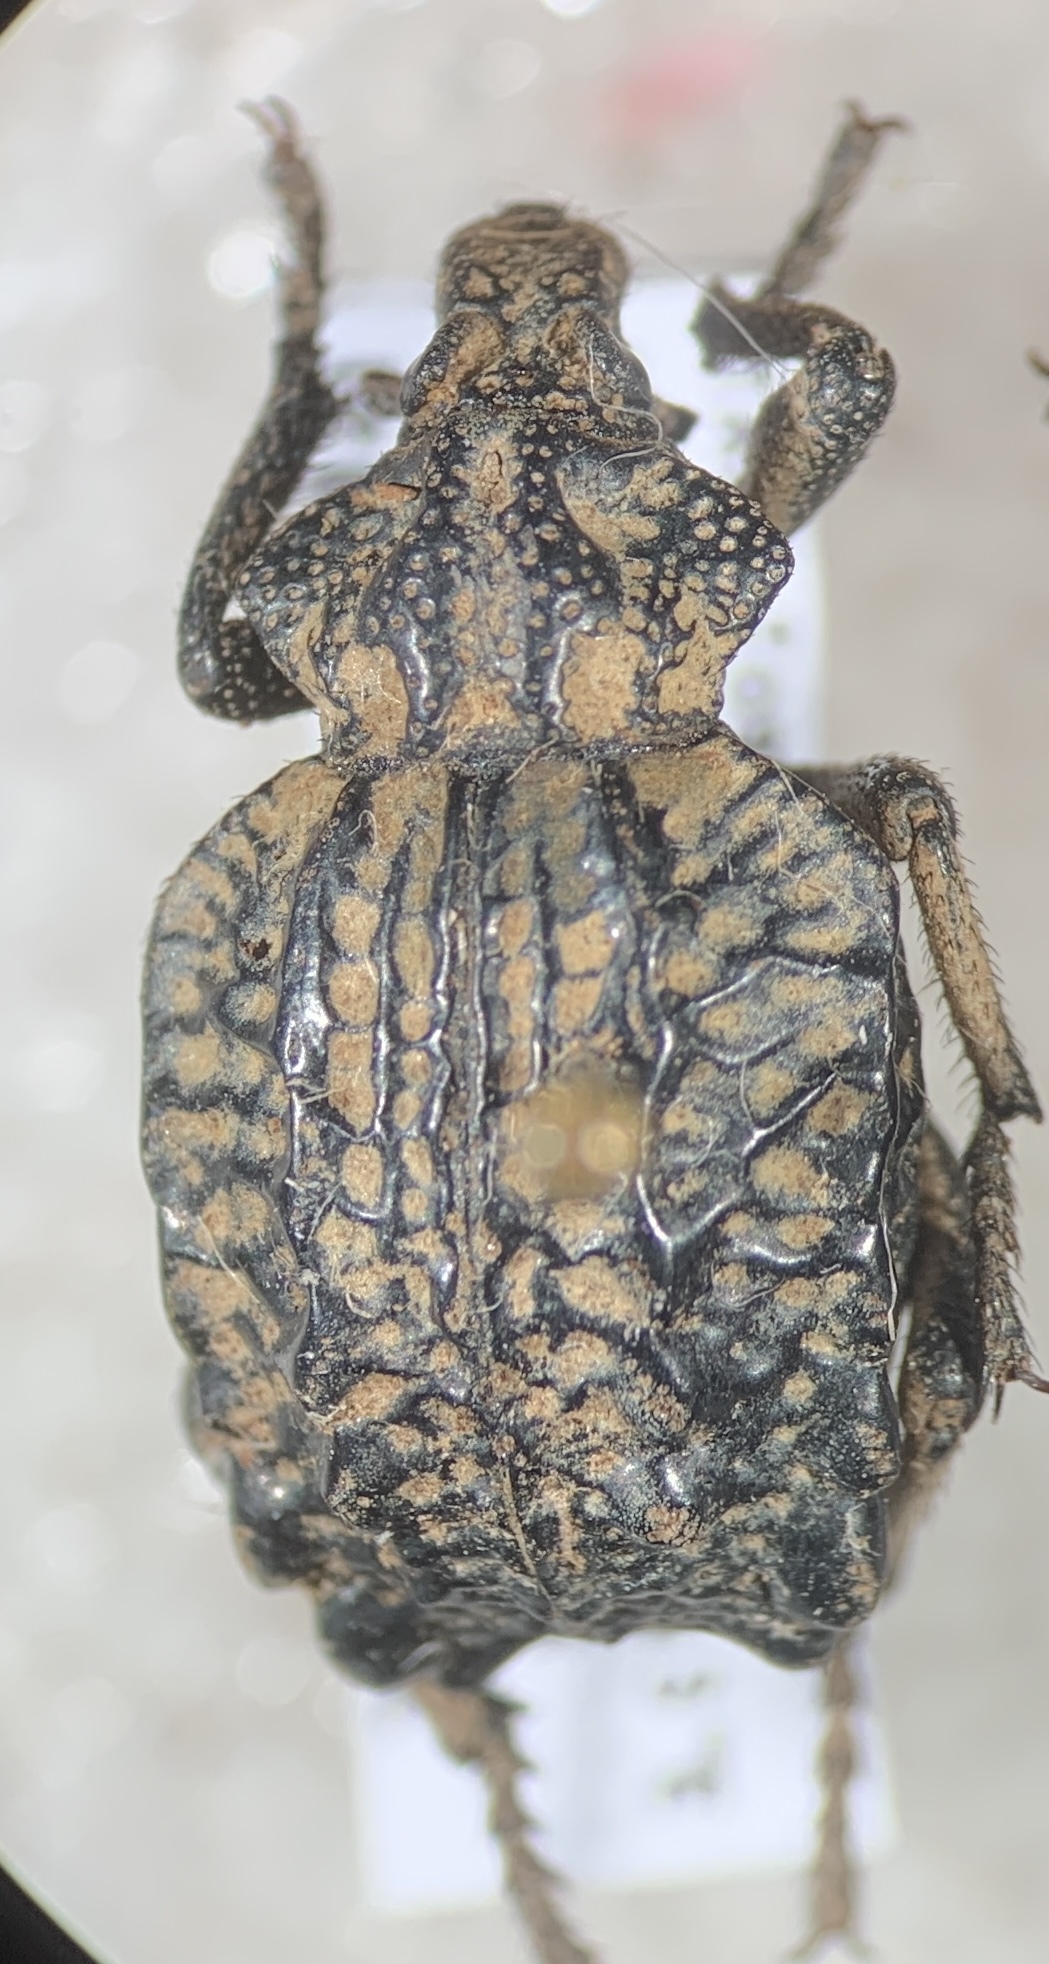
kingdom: Animalia
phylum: Arthropoda
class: Insecta
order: Coleoptera
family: Brachyceridae
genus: Brachycerus
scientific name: Brachycerus undatus
